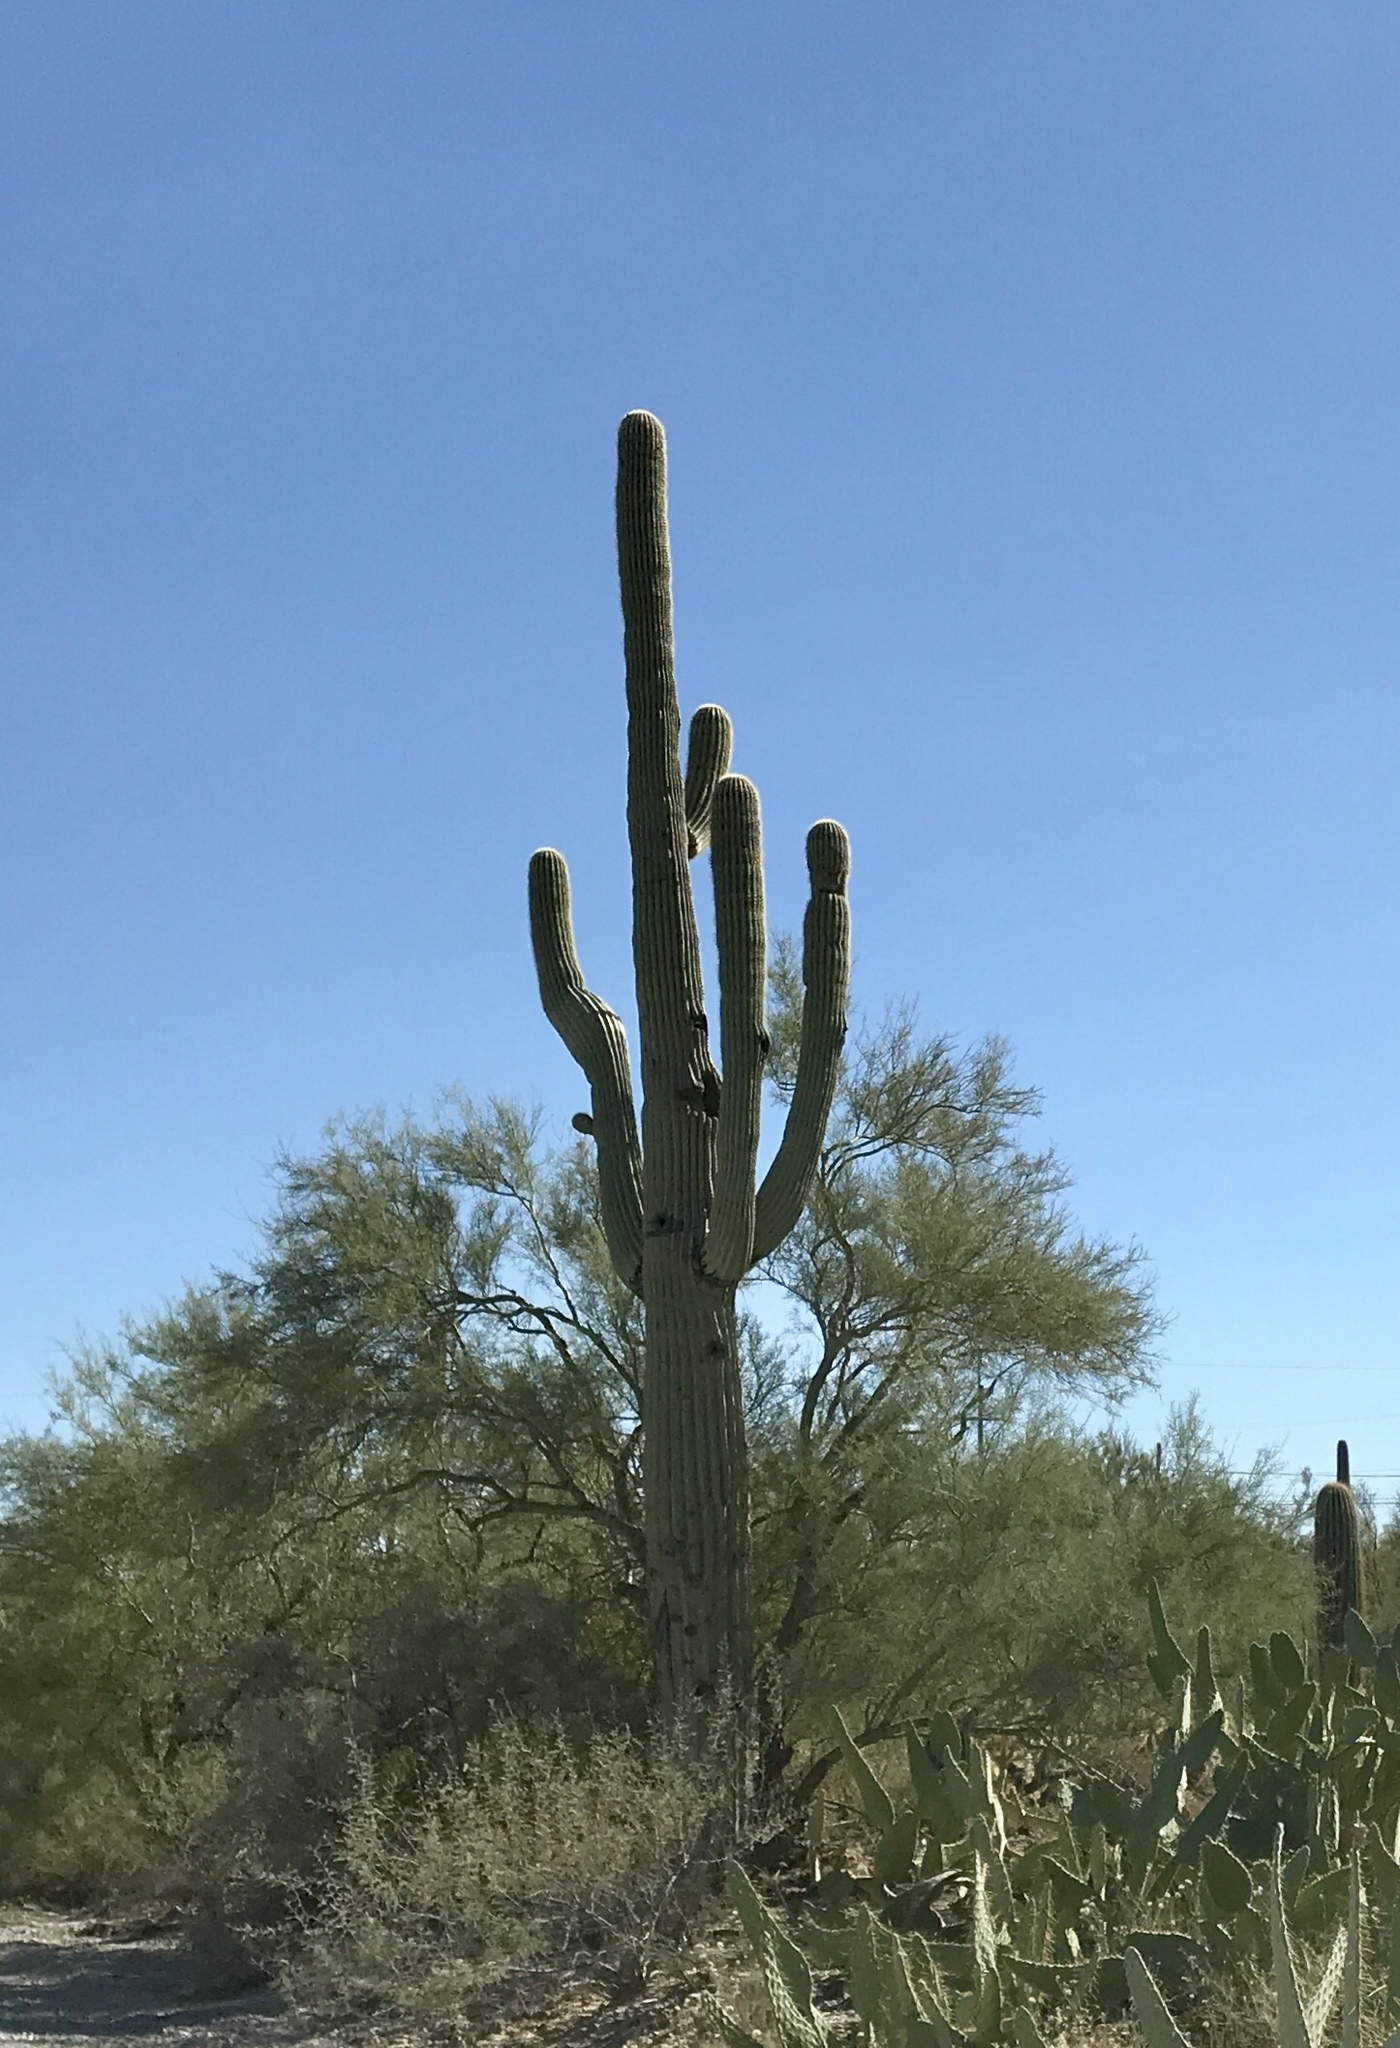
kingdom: Plantae
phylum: Tracheophyta
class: Magnoliopsida
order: Caryophyllales
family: Cactaceae
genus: Carnegiea
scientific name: Carnegiea gigantea
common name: Saguaro
